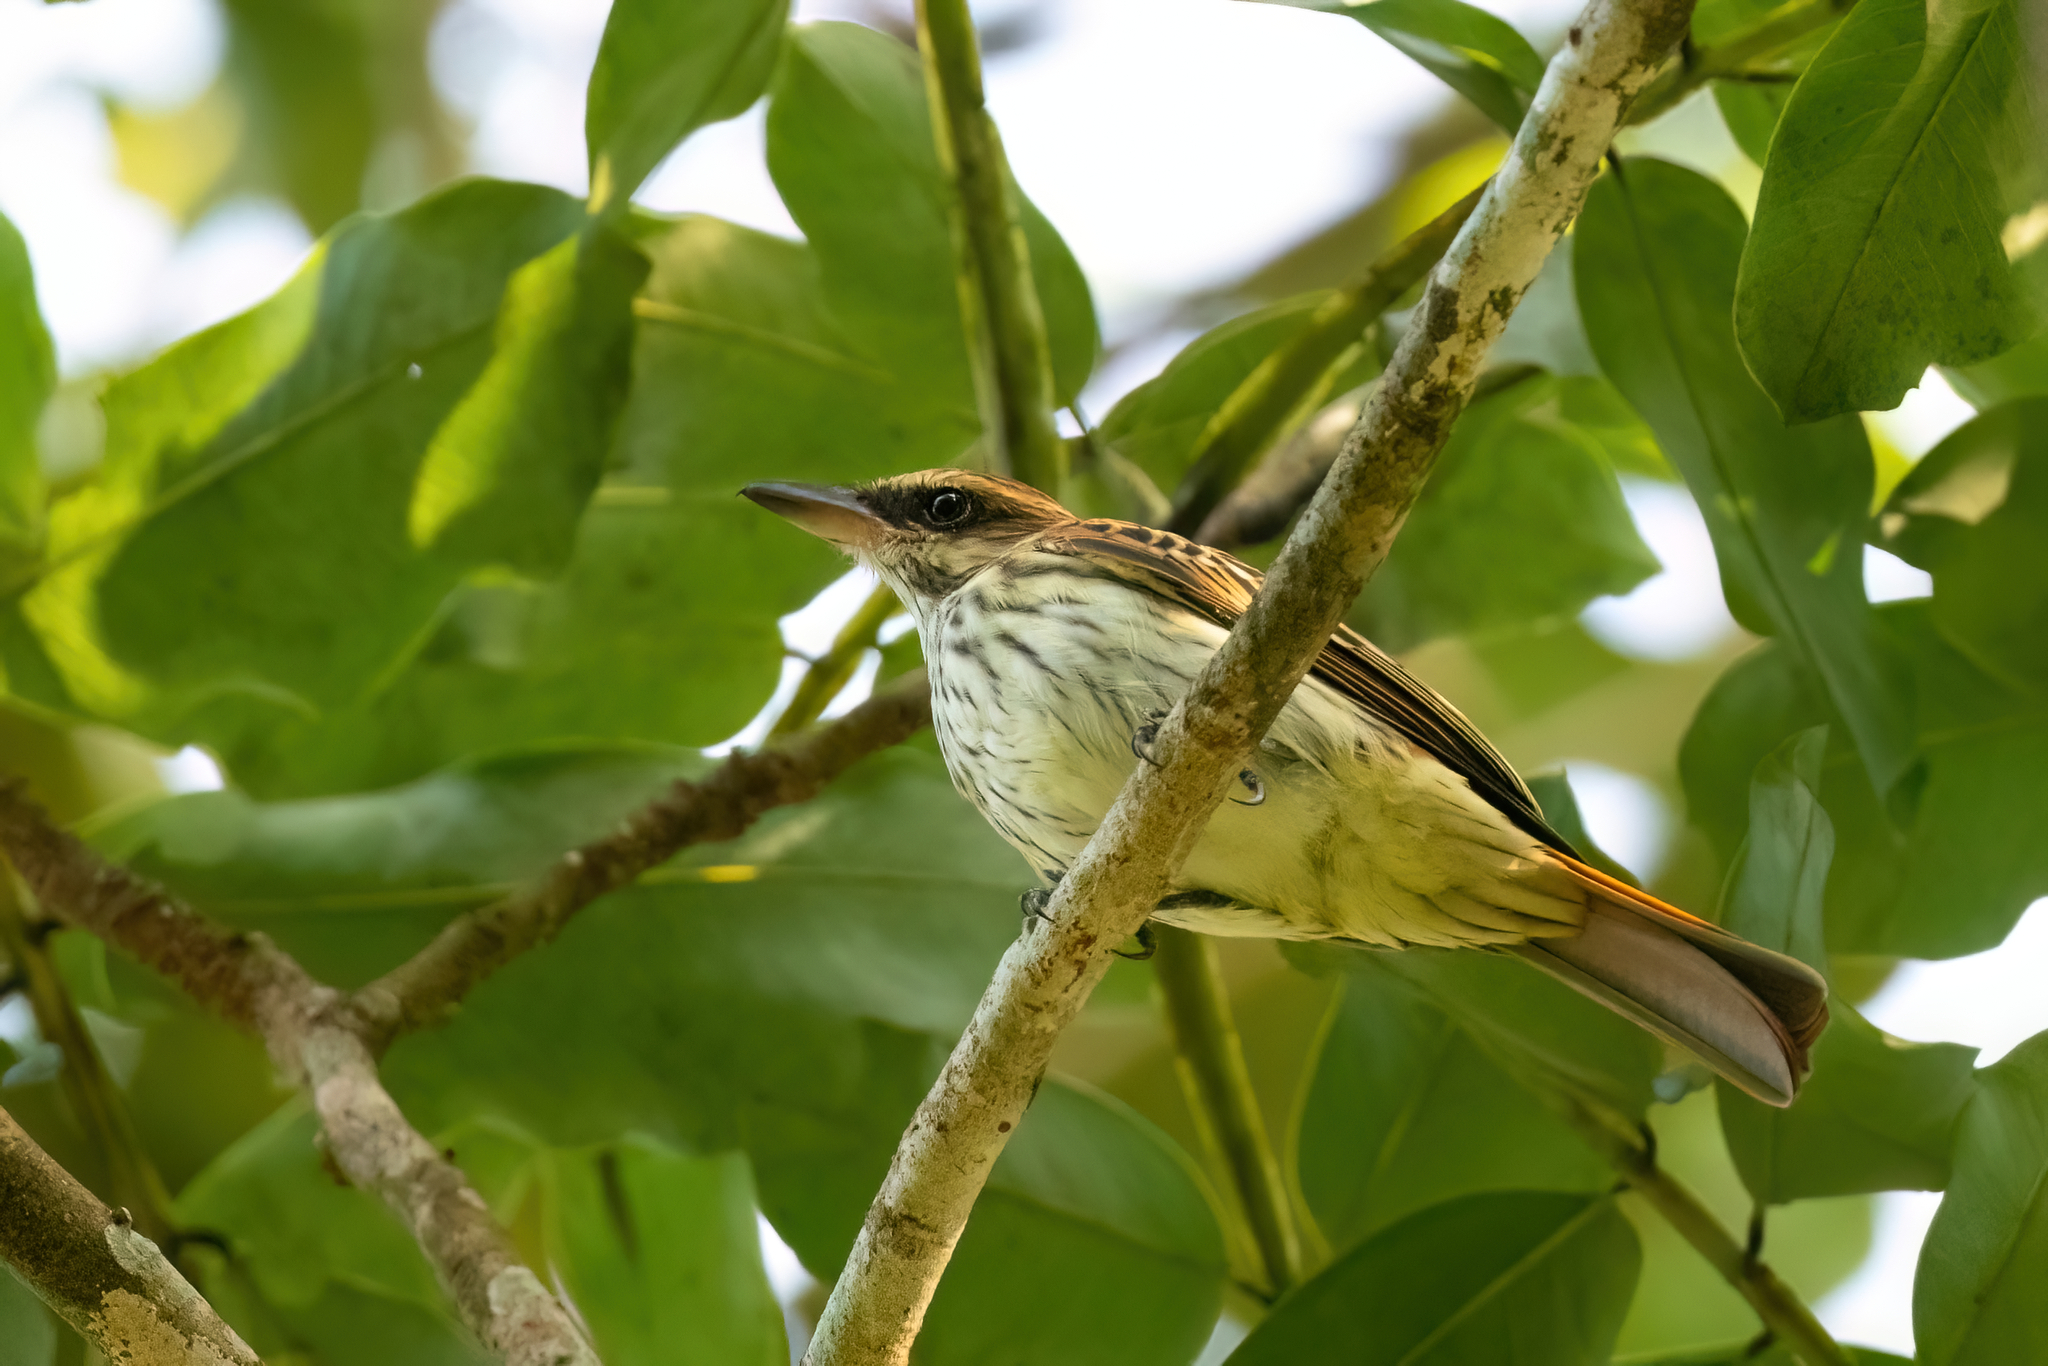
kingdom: Animalia
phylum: Chordata
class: Aves
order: Passeriformes
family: Tyrannidae
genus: Myiodynastes
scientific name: Myiodynastes maculatus
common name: Streaked flycatcher
